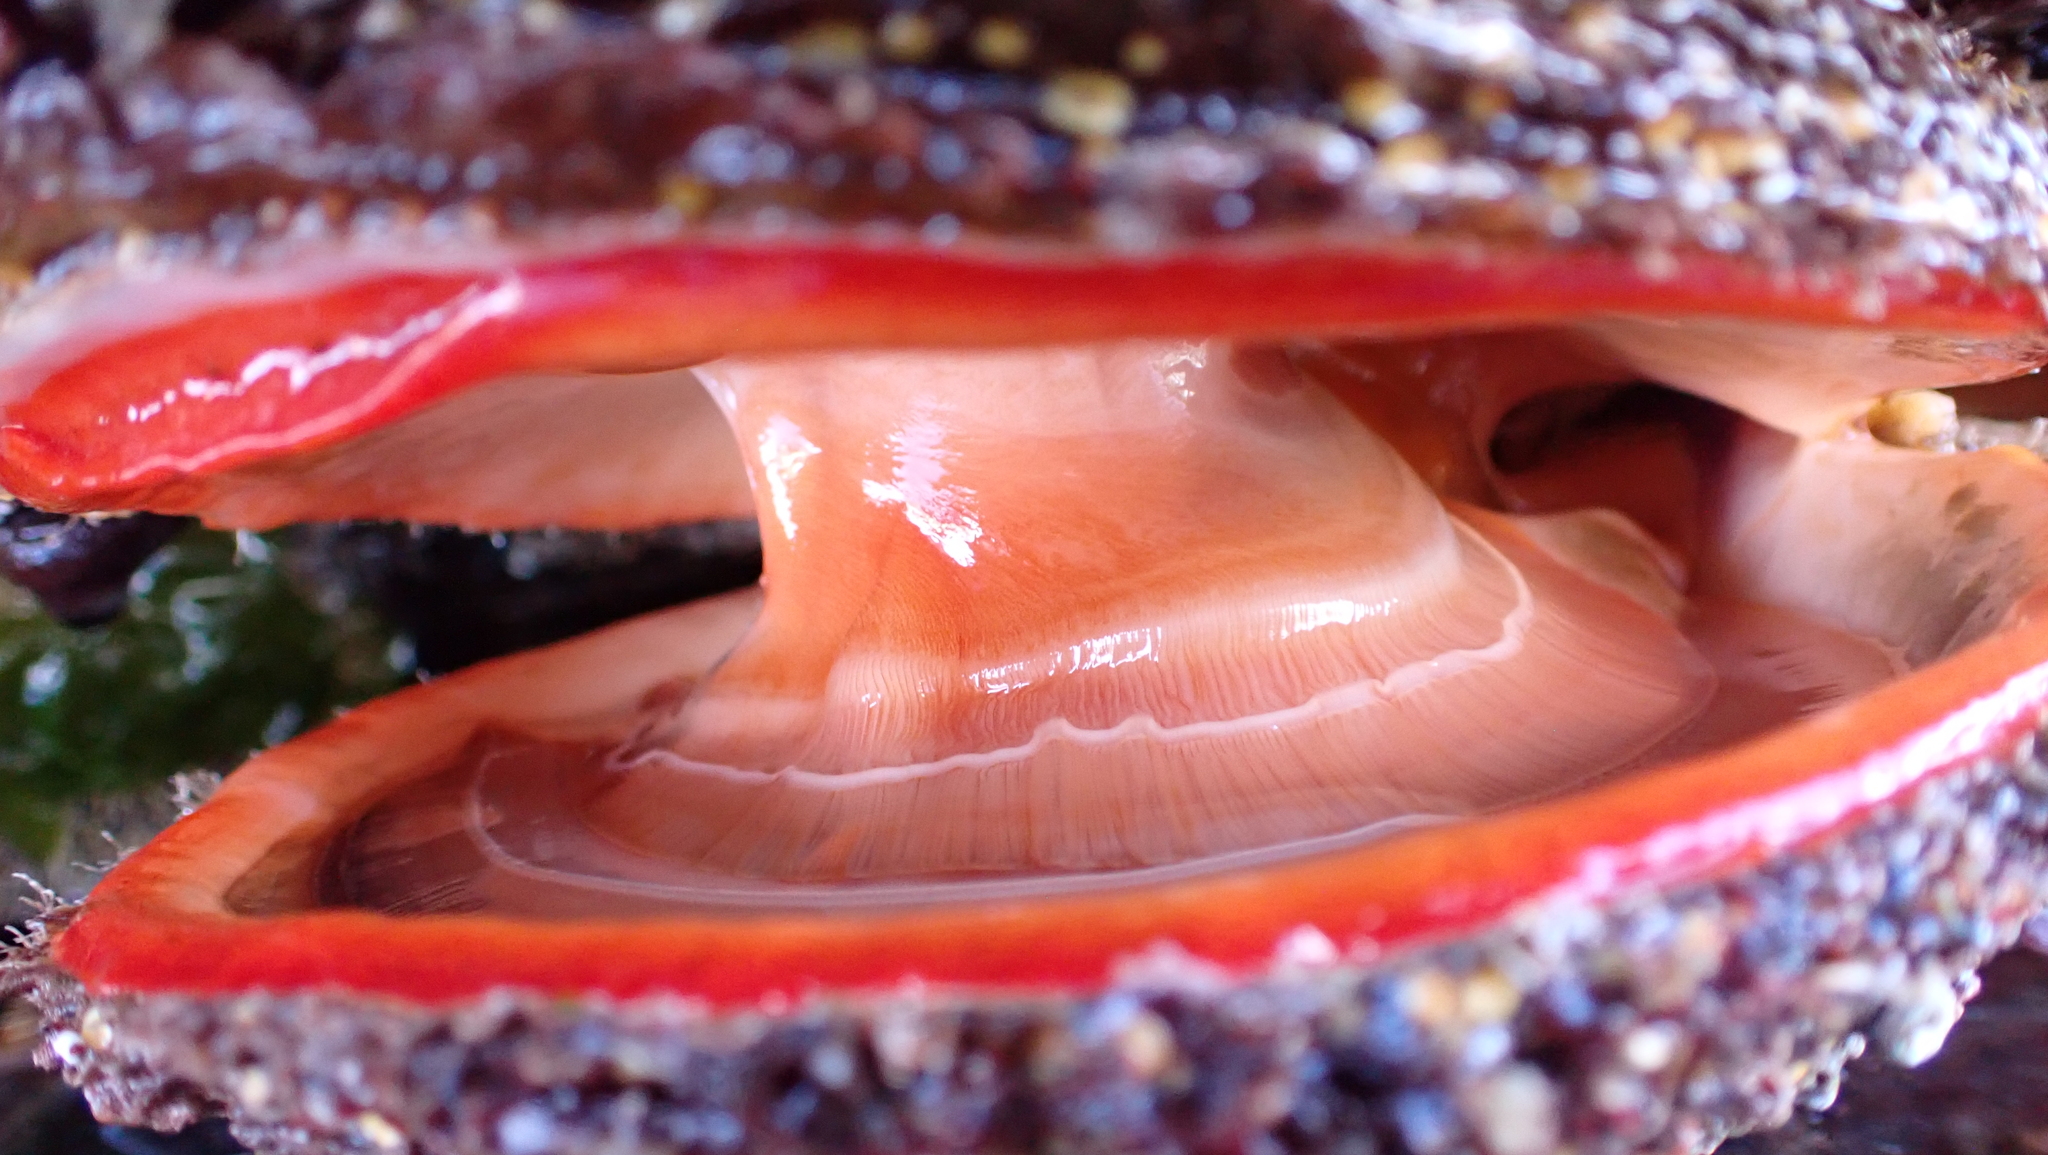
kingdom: Animalia
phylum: Mollusca
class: Bivalvia
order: Pectinida
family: Pectinidae
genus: Crassadoma
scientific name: Crassadoma gigantea
